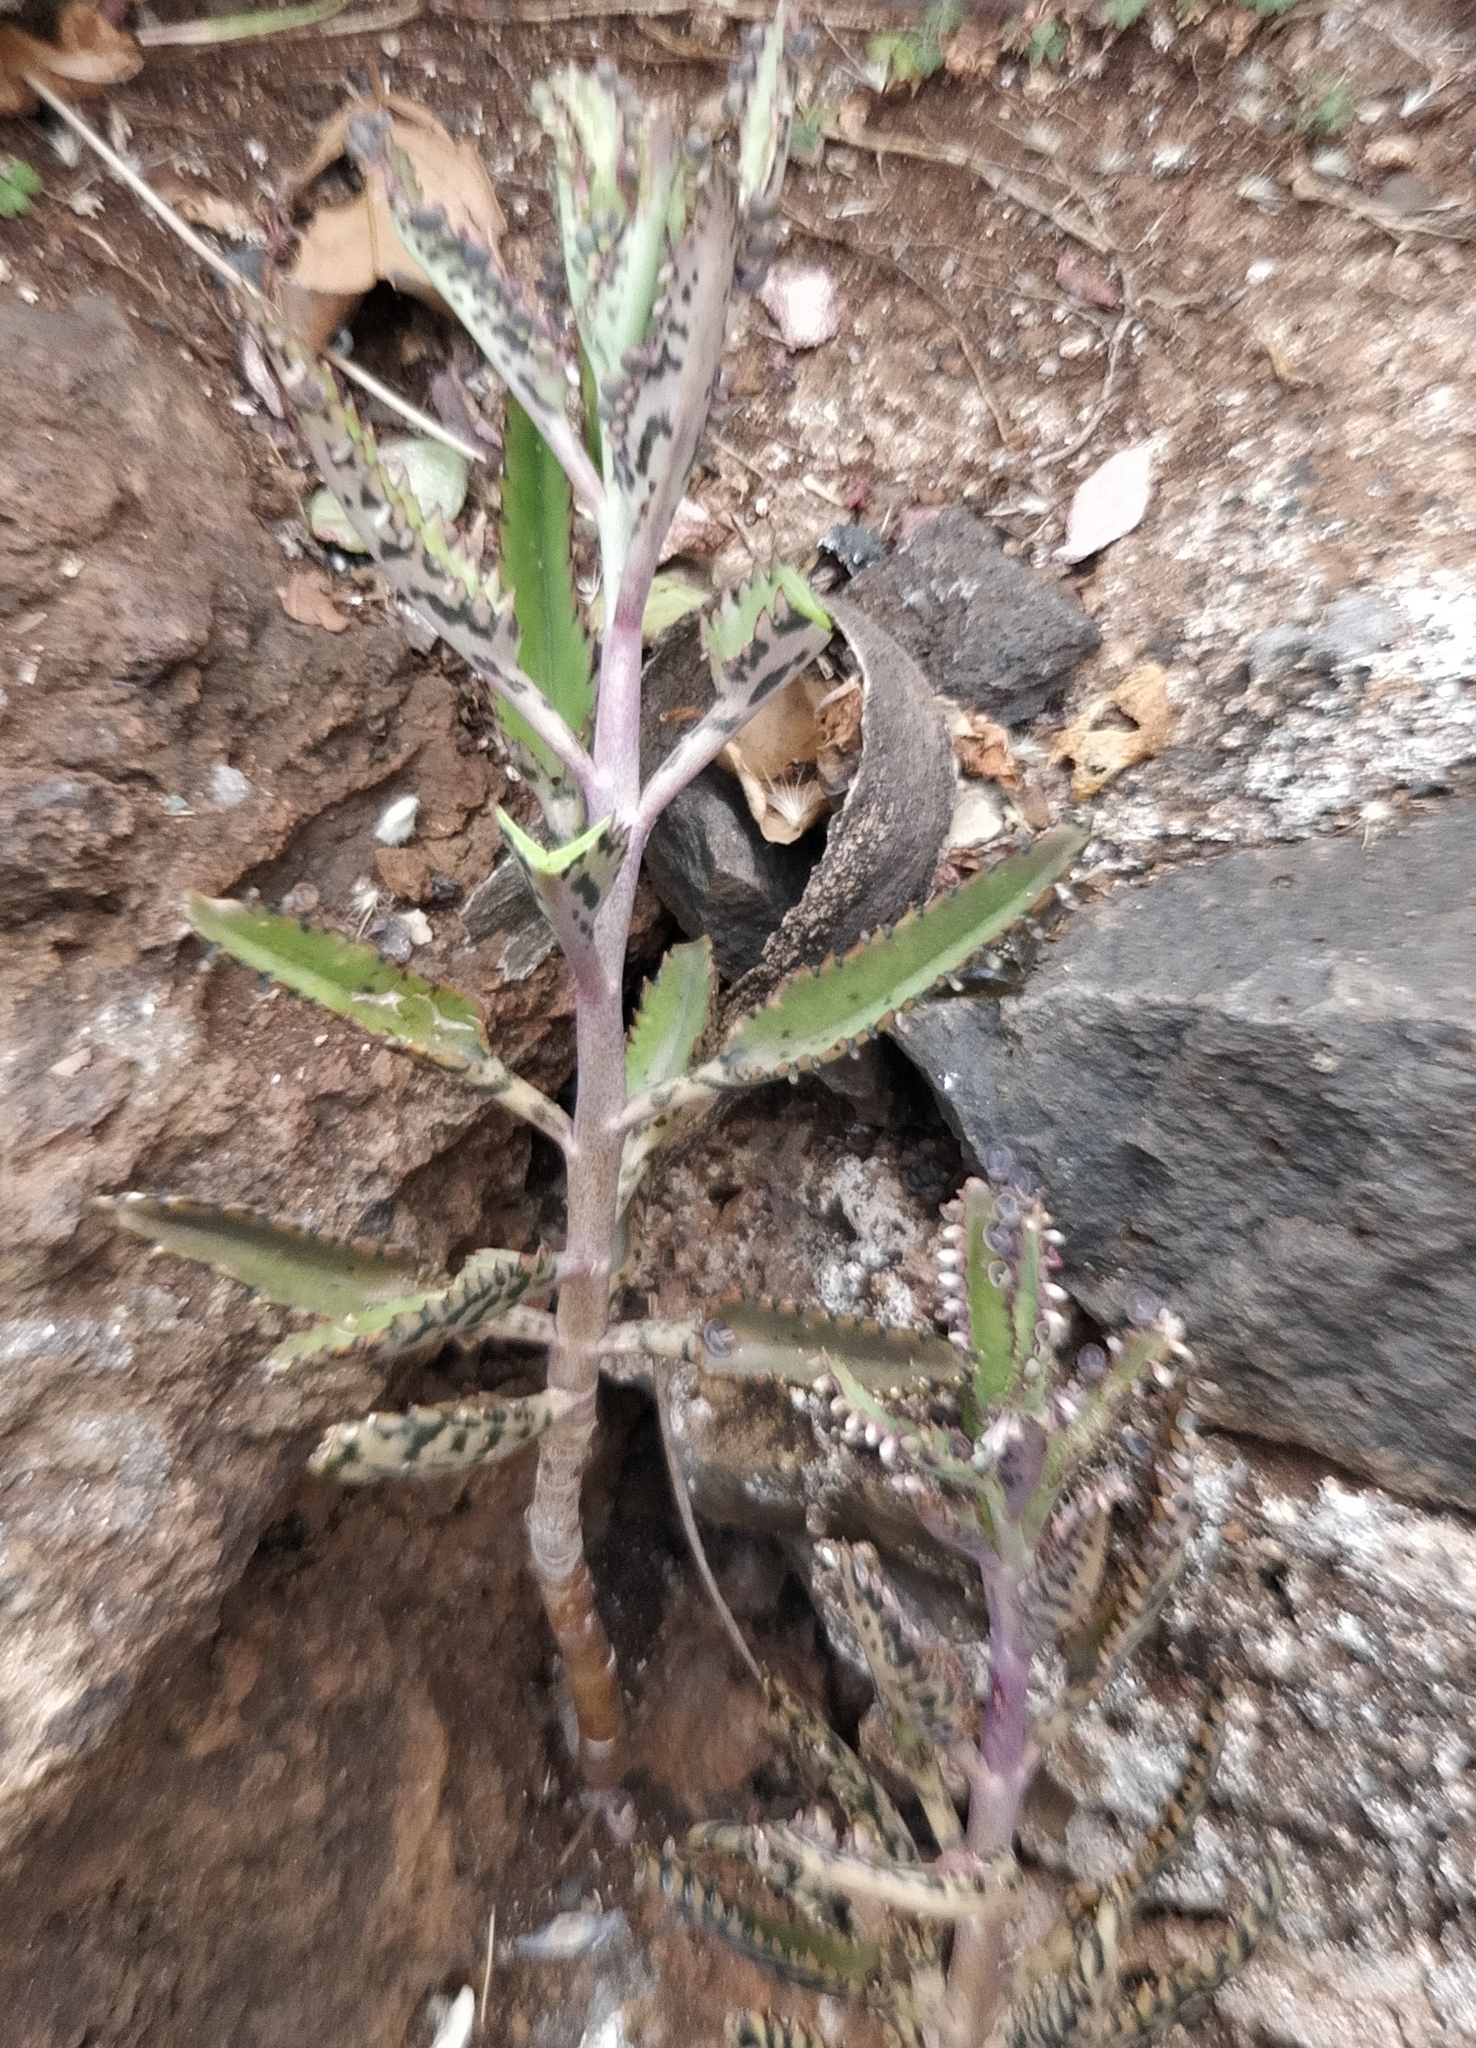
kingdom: Plantae
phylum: Tracheophyta
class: Magnoliopsida
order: Saxifragales
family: Crassulaceae
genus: Kalanchoe
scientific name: Kalanchoe houghtonii
